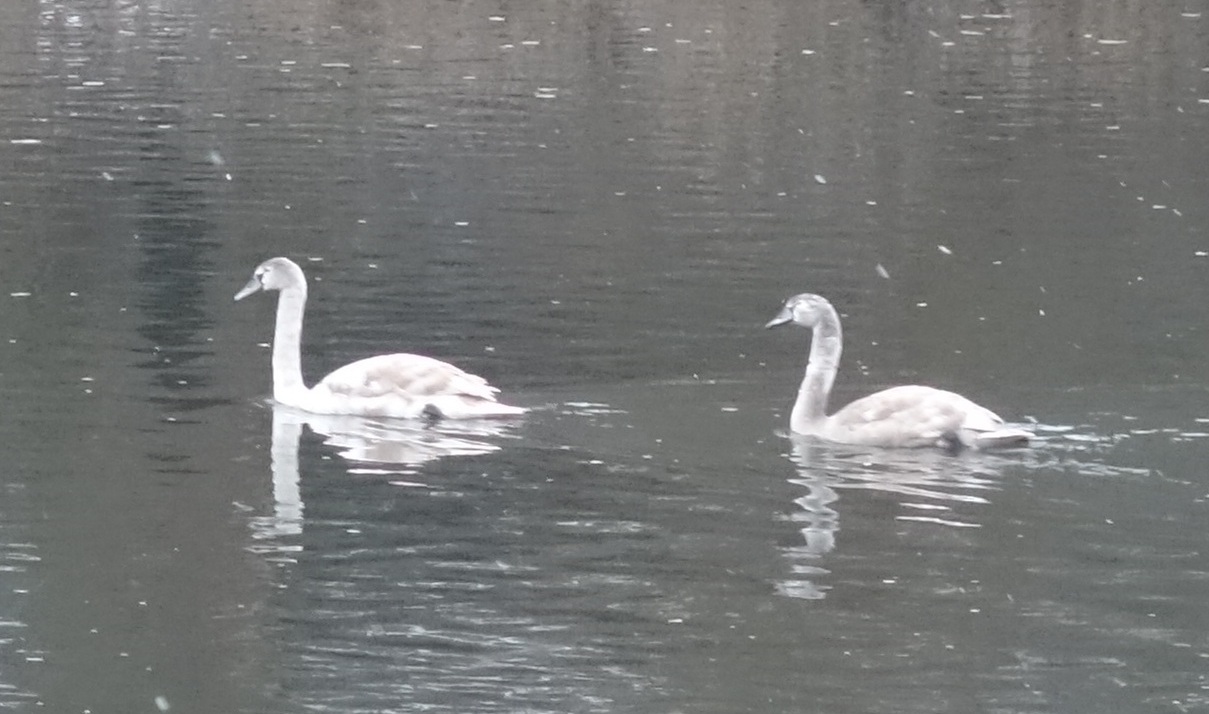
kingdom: Animalia
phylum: Chordata
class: Aves
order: Anseriformes
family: Anatidae
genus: Cygnus
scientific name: Cygnus olor
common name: Mute swan
